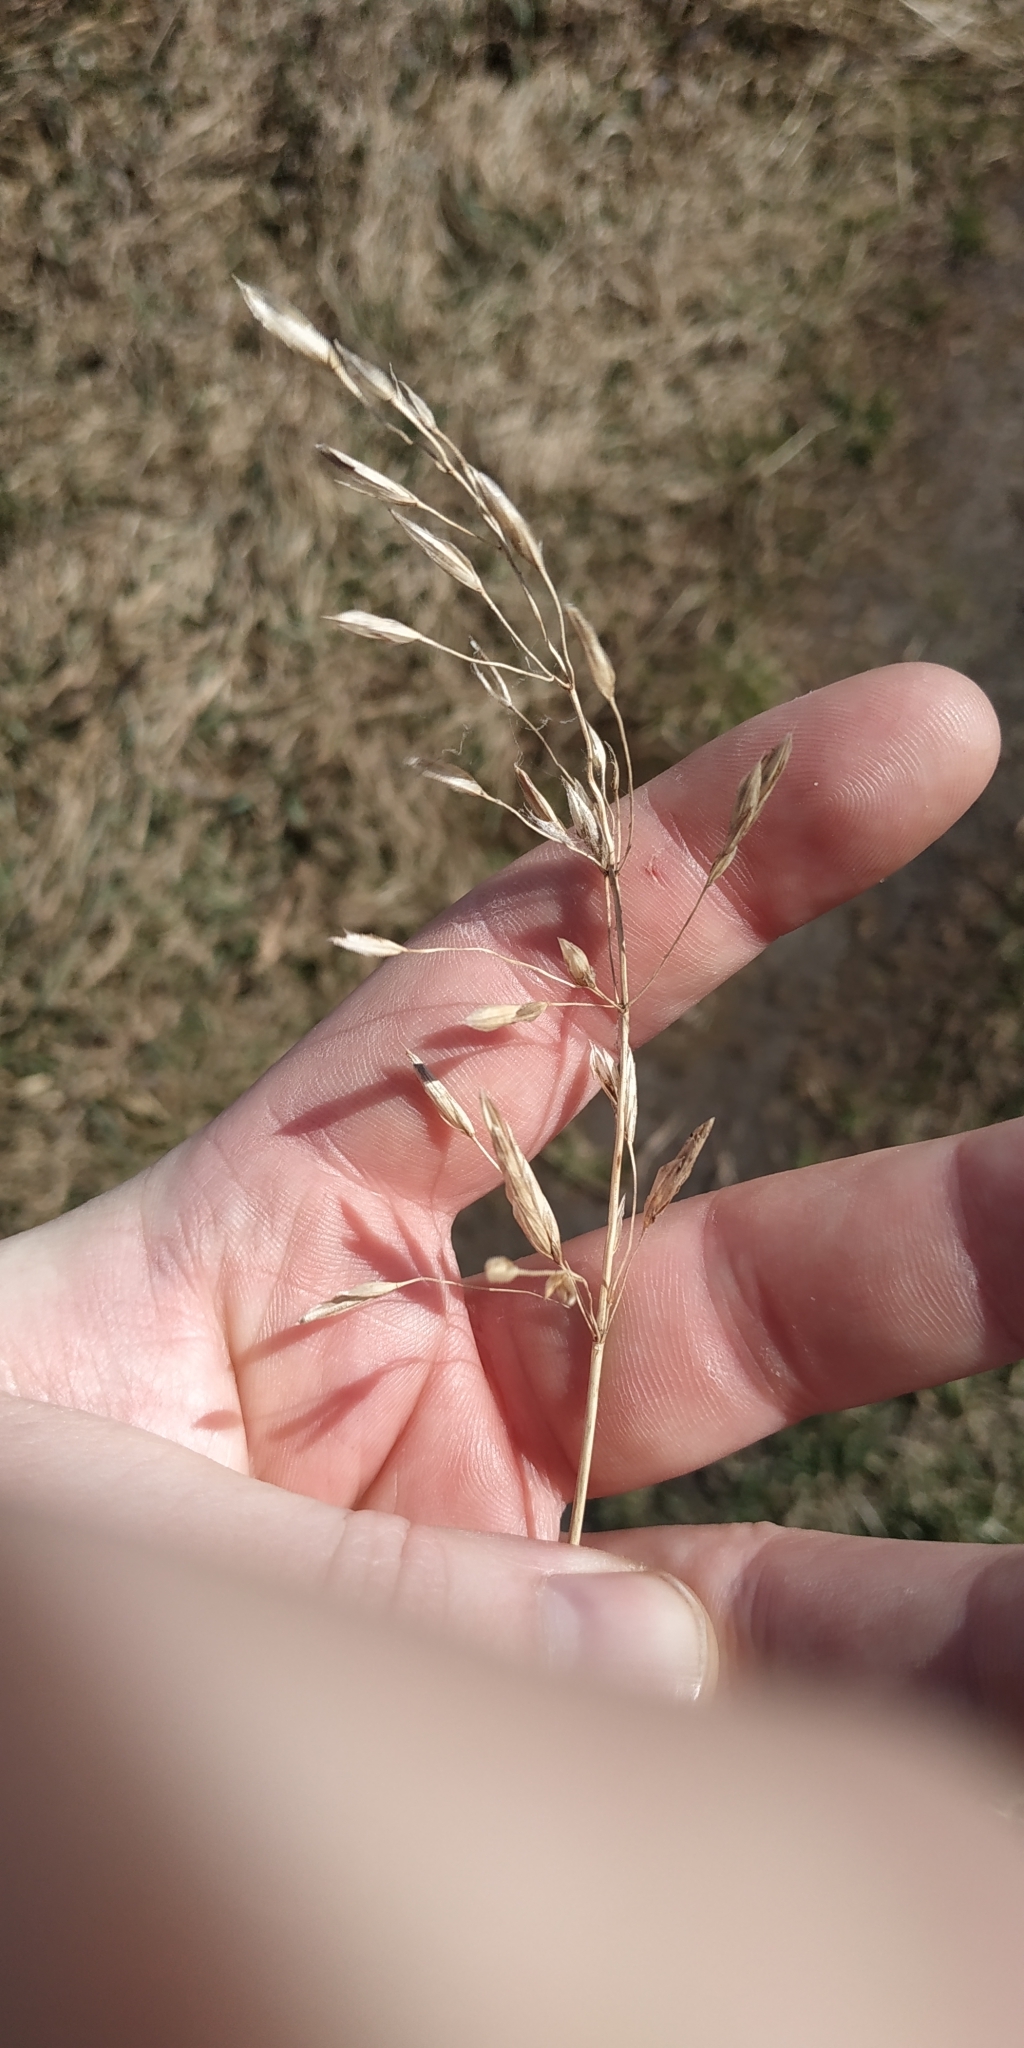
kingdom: Plantae
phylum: Tracheophyta
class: Liliopsida
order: Poales
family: Poaceae
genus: Bromus
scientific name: Bromus inermis
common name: Smooth brome
